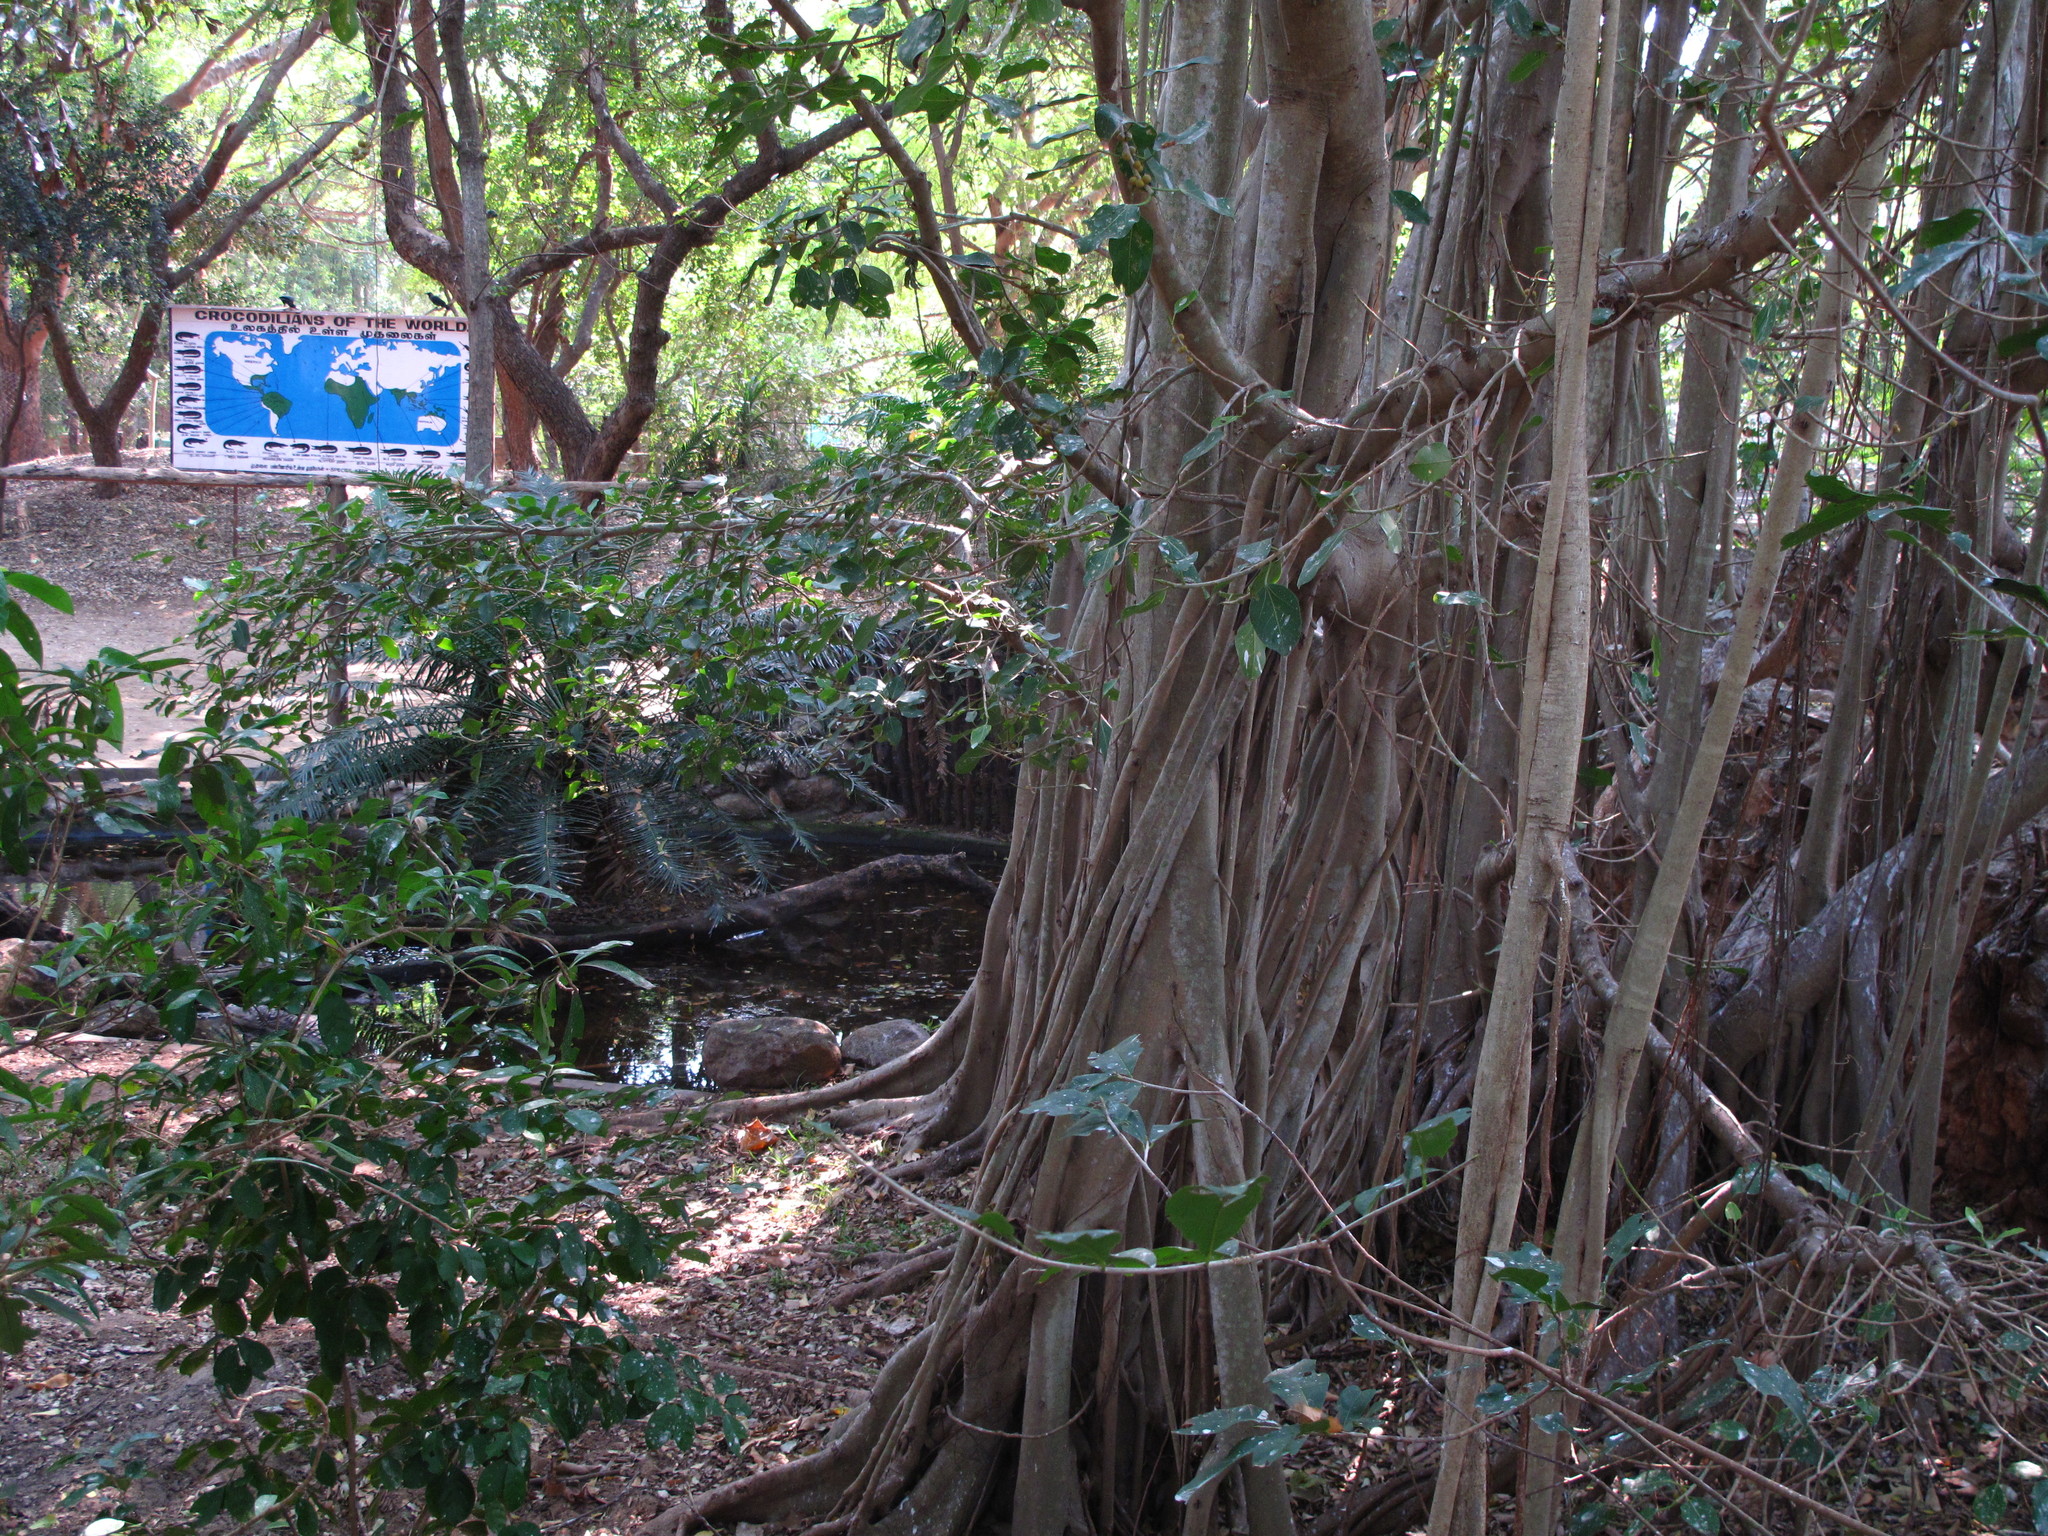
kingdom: Plantae
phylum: Tracheophyta
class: Magnoliopsida
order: Rosales
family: Moraceae
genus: Ficus
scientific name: Ficus benghalensis
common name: Indian banyan
